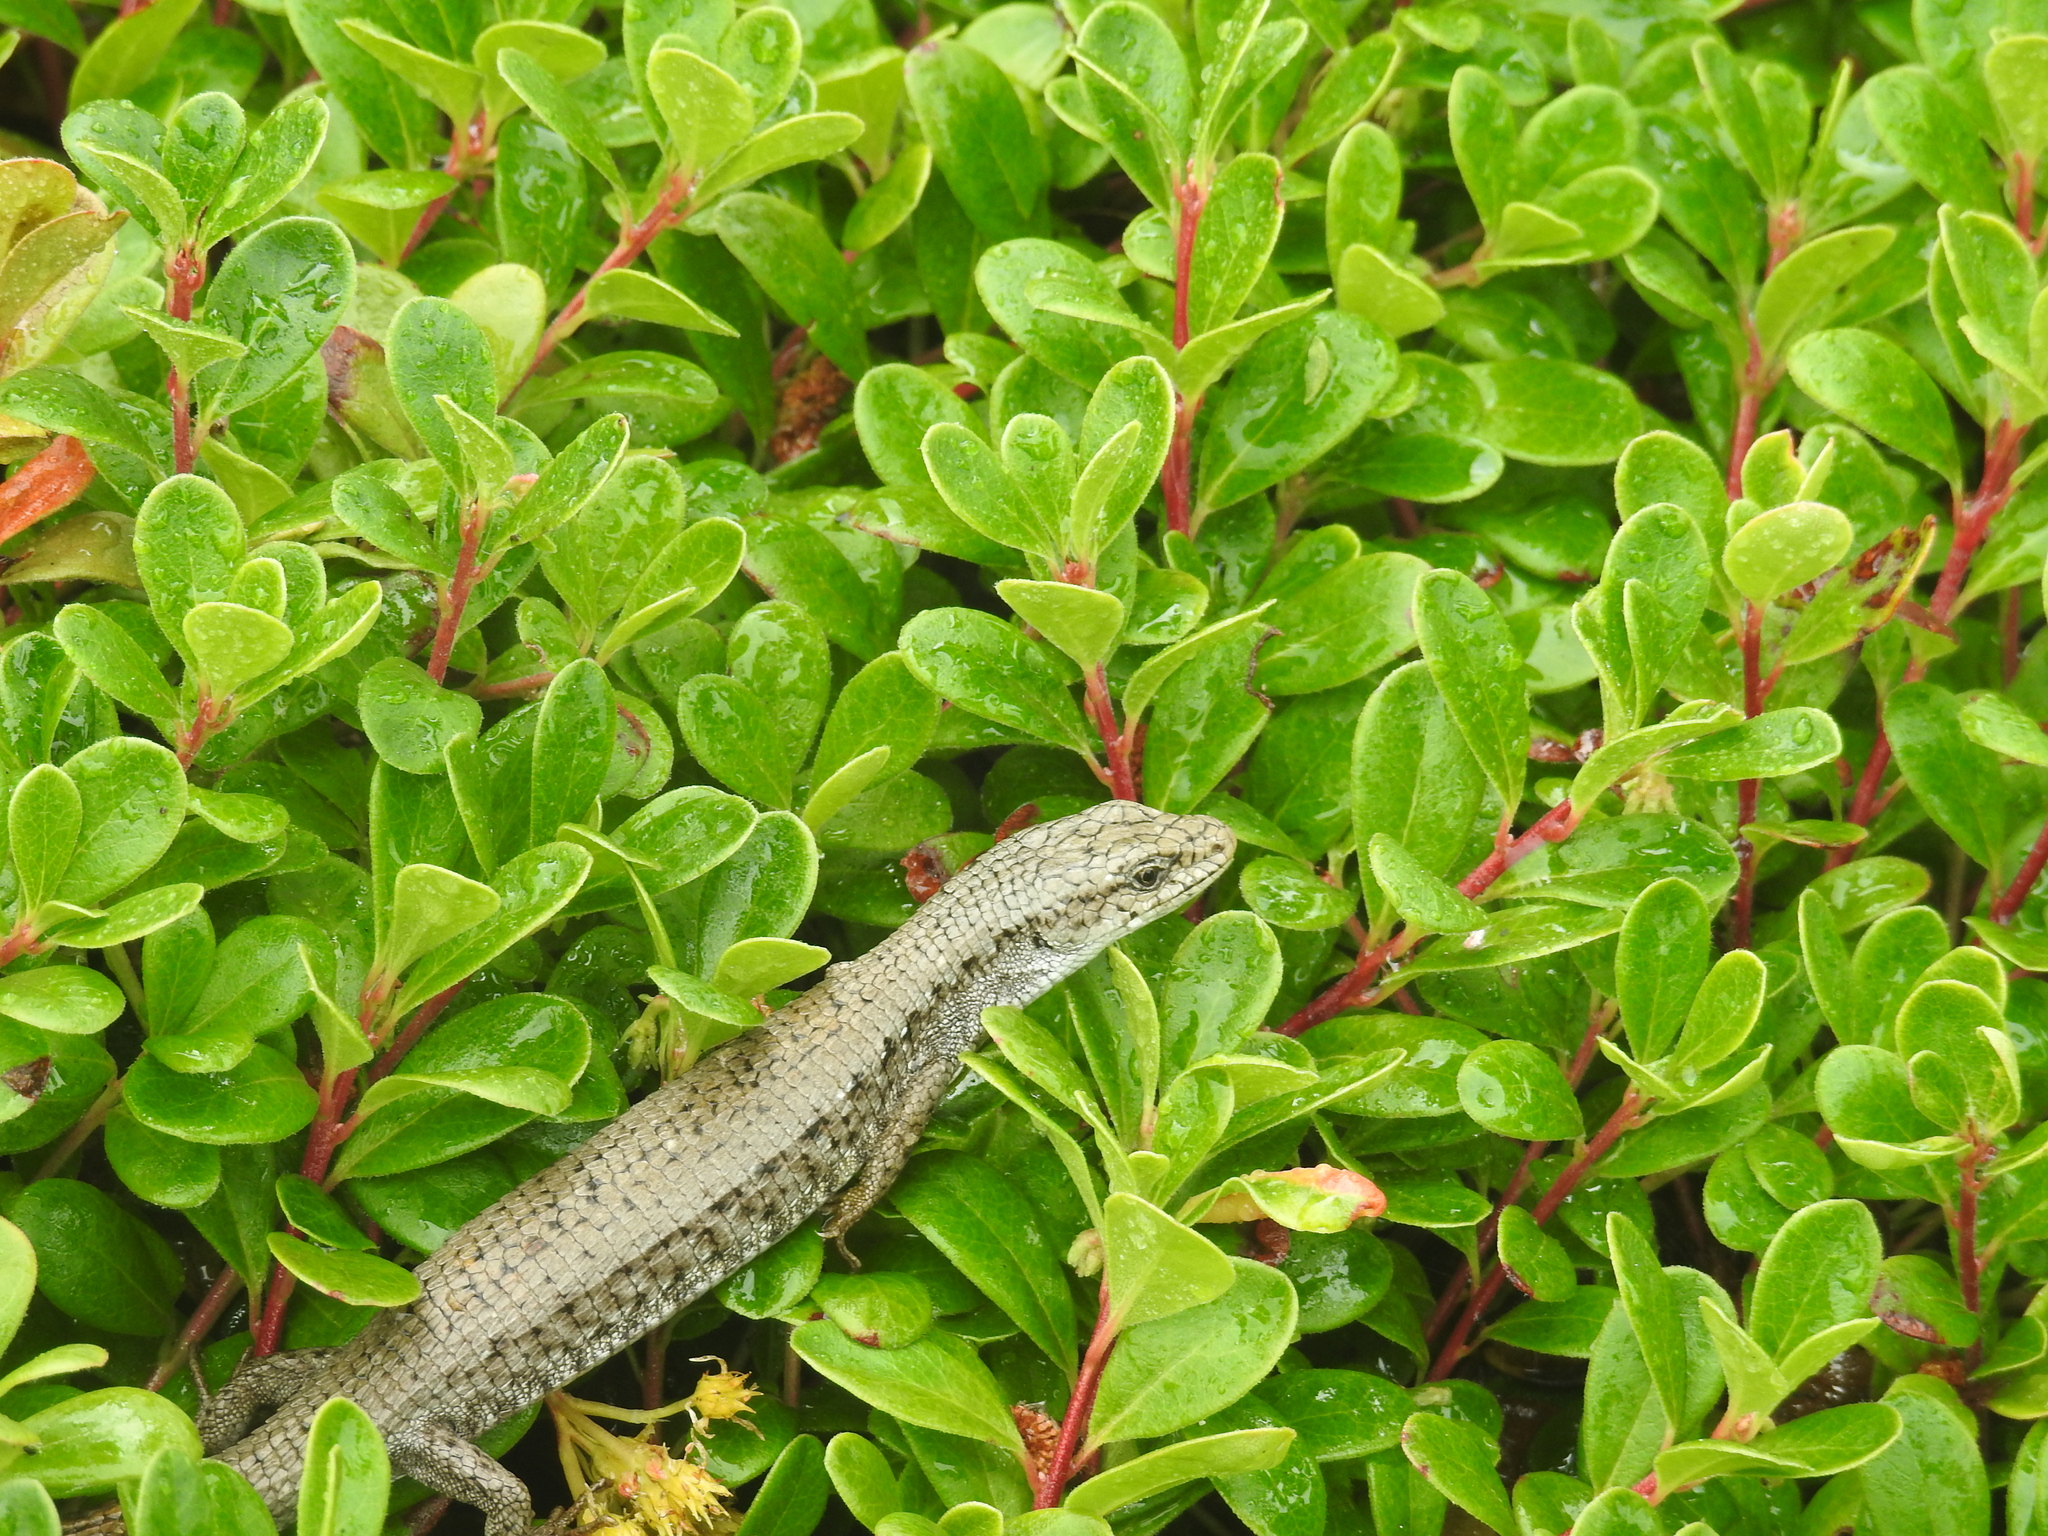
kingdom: Animalia
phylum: Chordata
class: Squamata
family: Anguidae
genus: Elgaria
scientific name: Elgaria coerulea
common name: Northern alligator lizard
